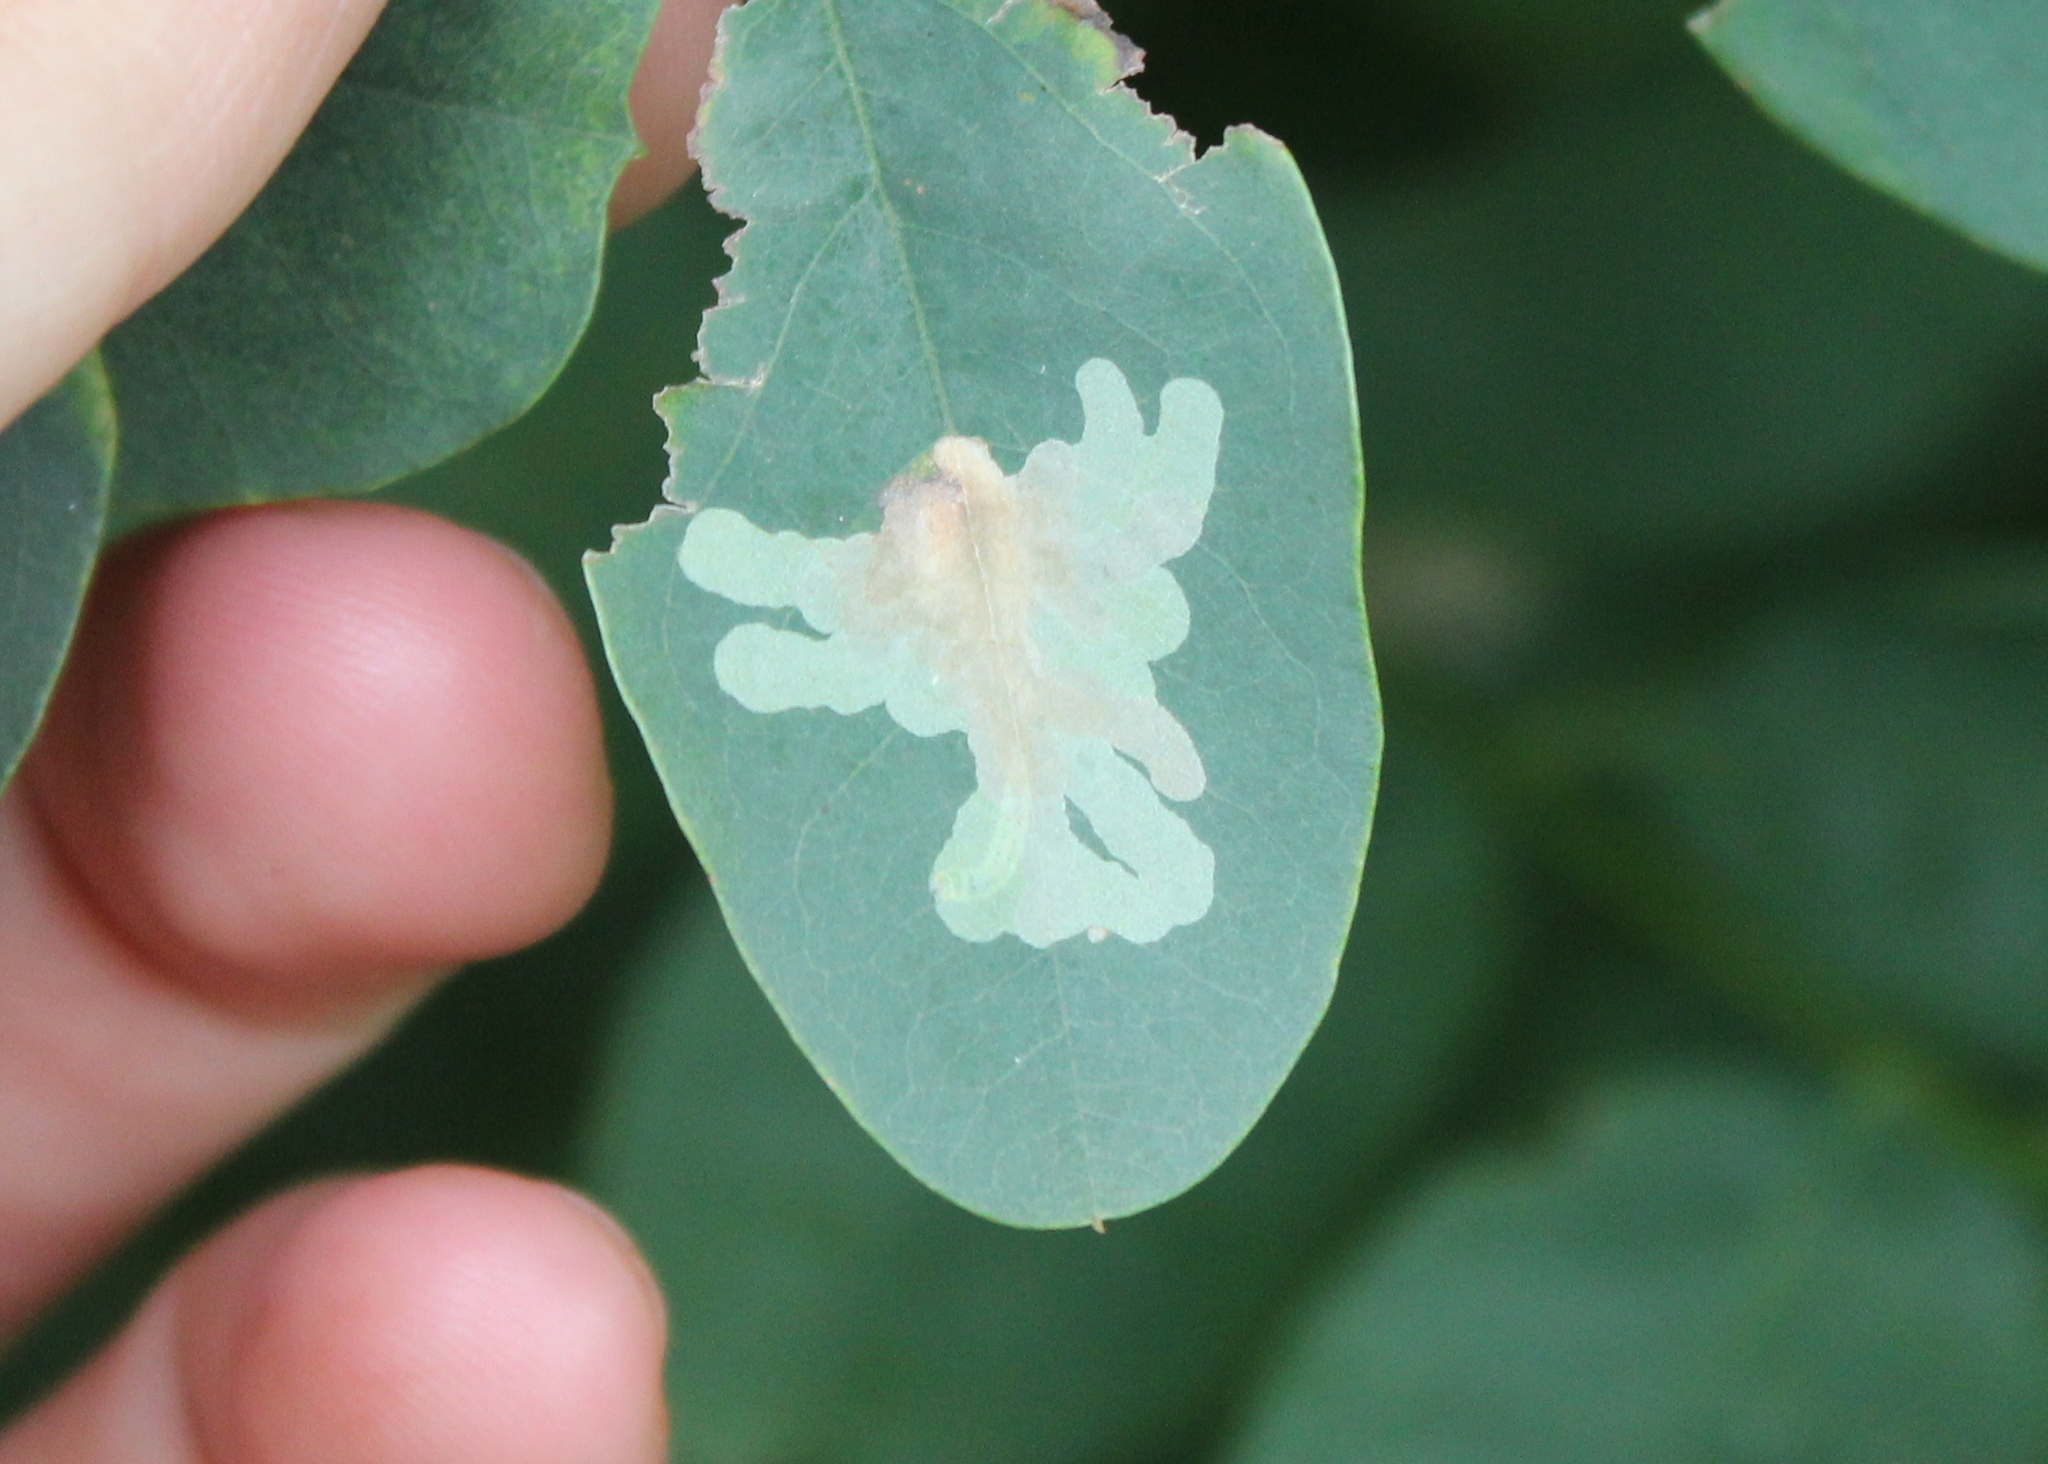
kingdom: Animalia
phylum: Arthropoda
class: Insecta
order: Lepidoptera
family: Gracillariidae
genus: Parectopa
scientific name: Parectopa robiniella
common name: Locust digitate leafminer
